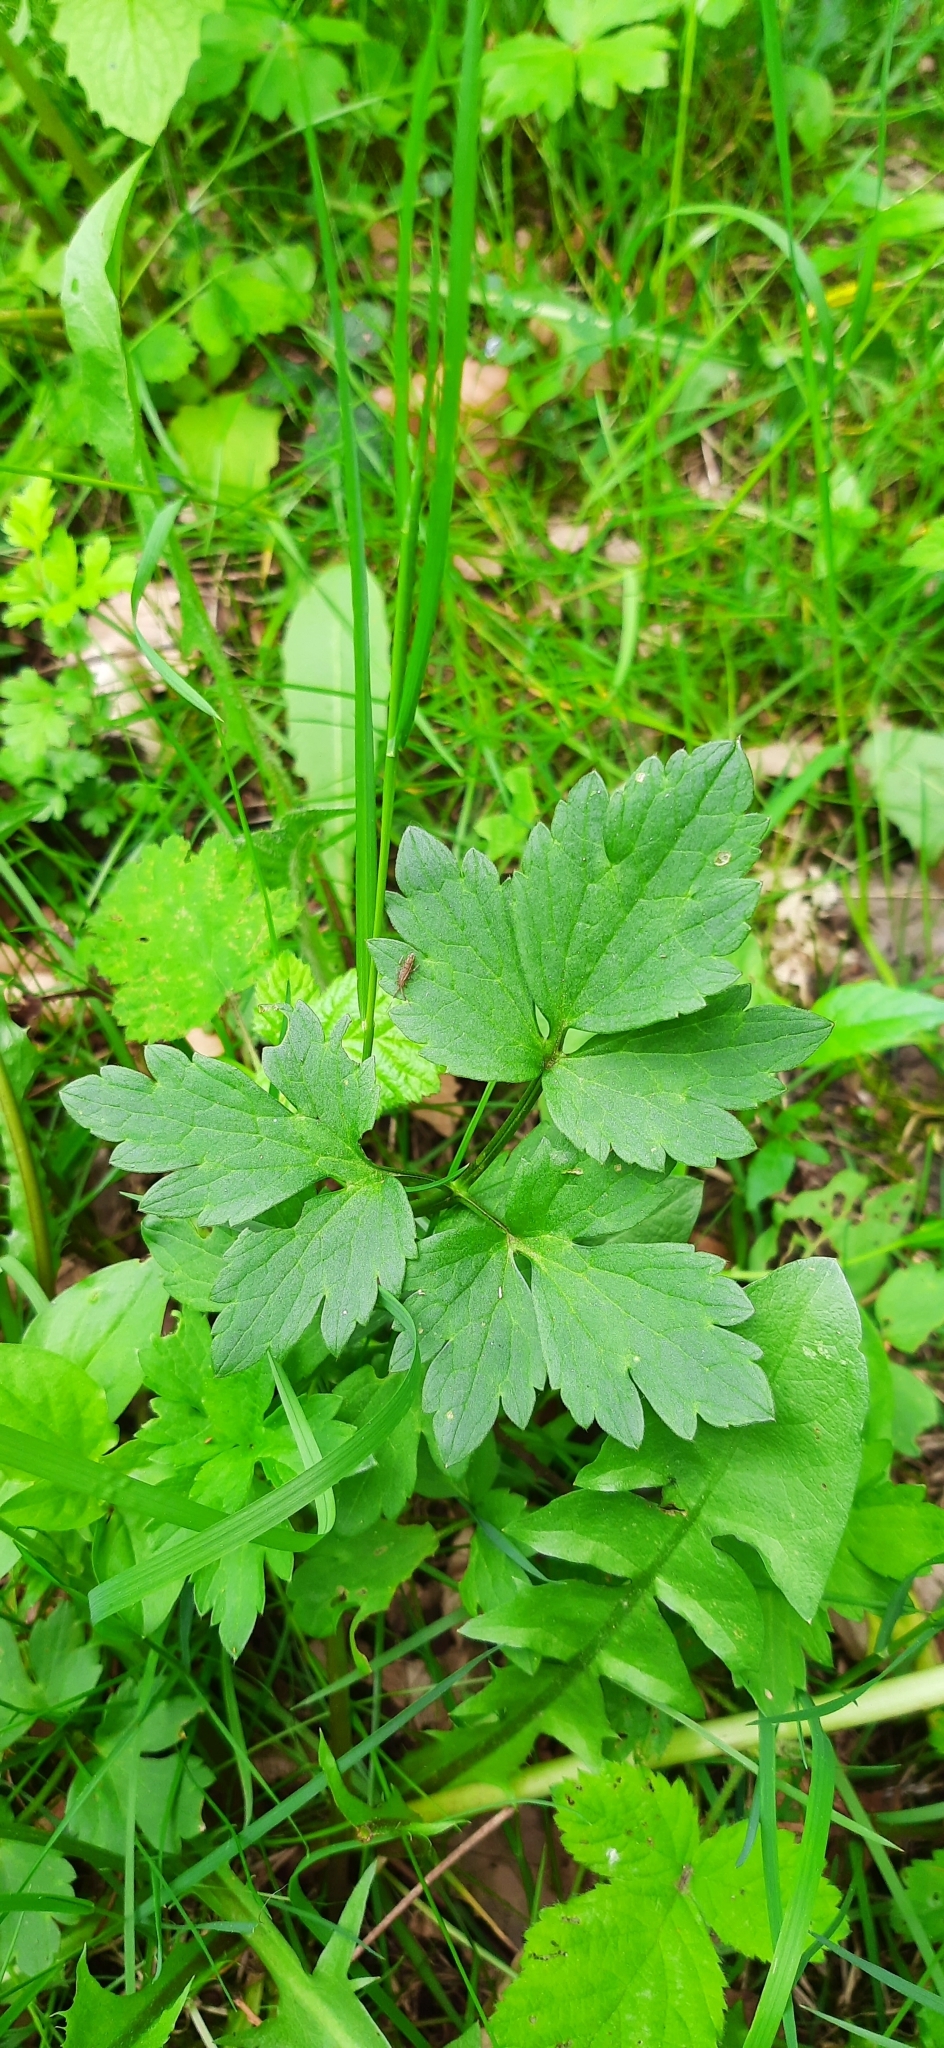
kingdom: Plantae
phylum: Tracheophyta
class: Magnoliopsida
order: Ranunculales
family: Ranunculaceae
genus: Ranunculus
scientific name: Ranunculus repens
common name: Creeping buttercup
